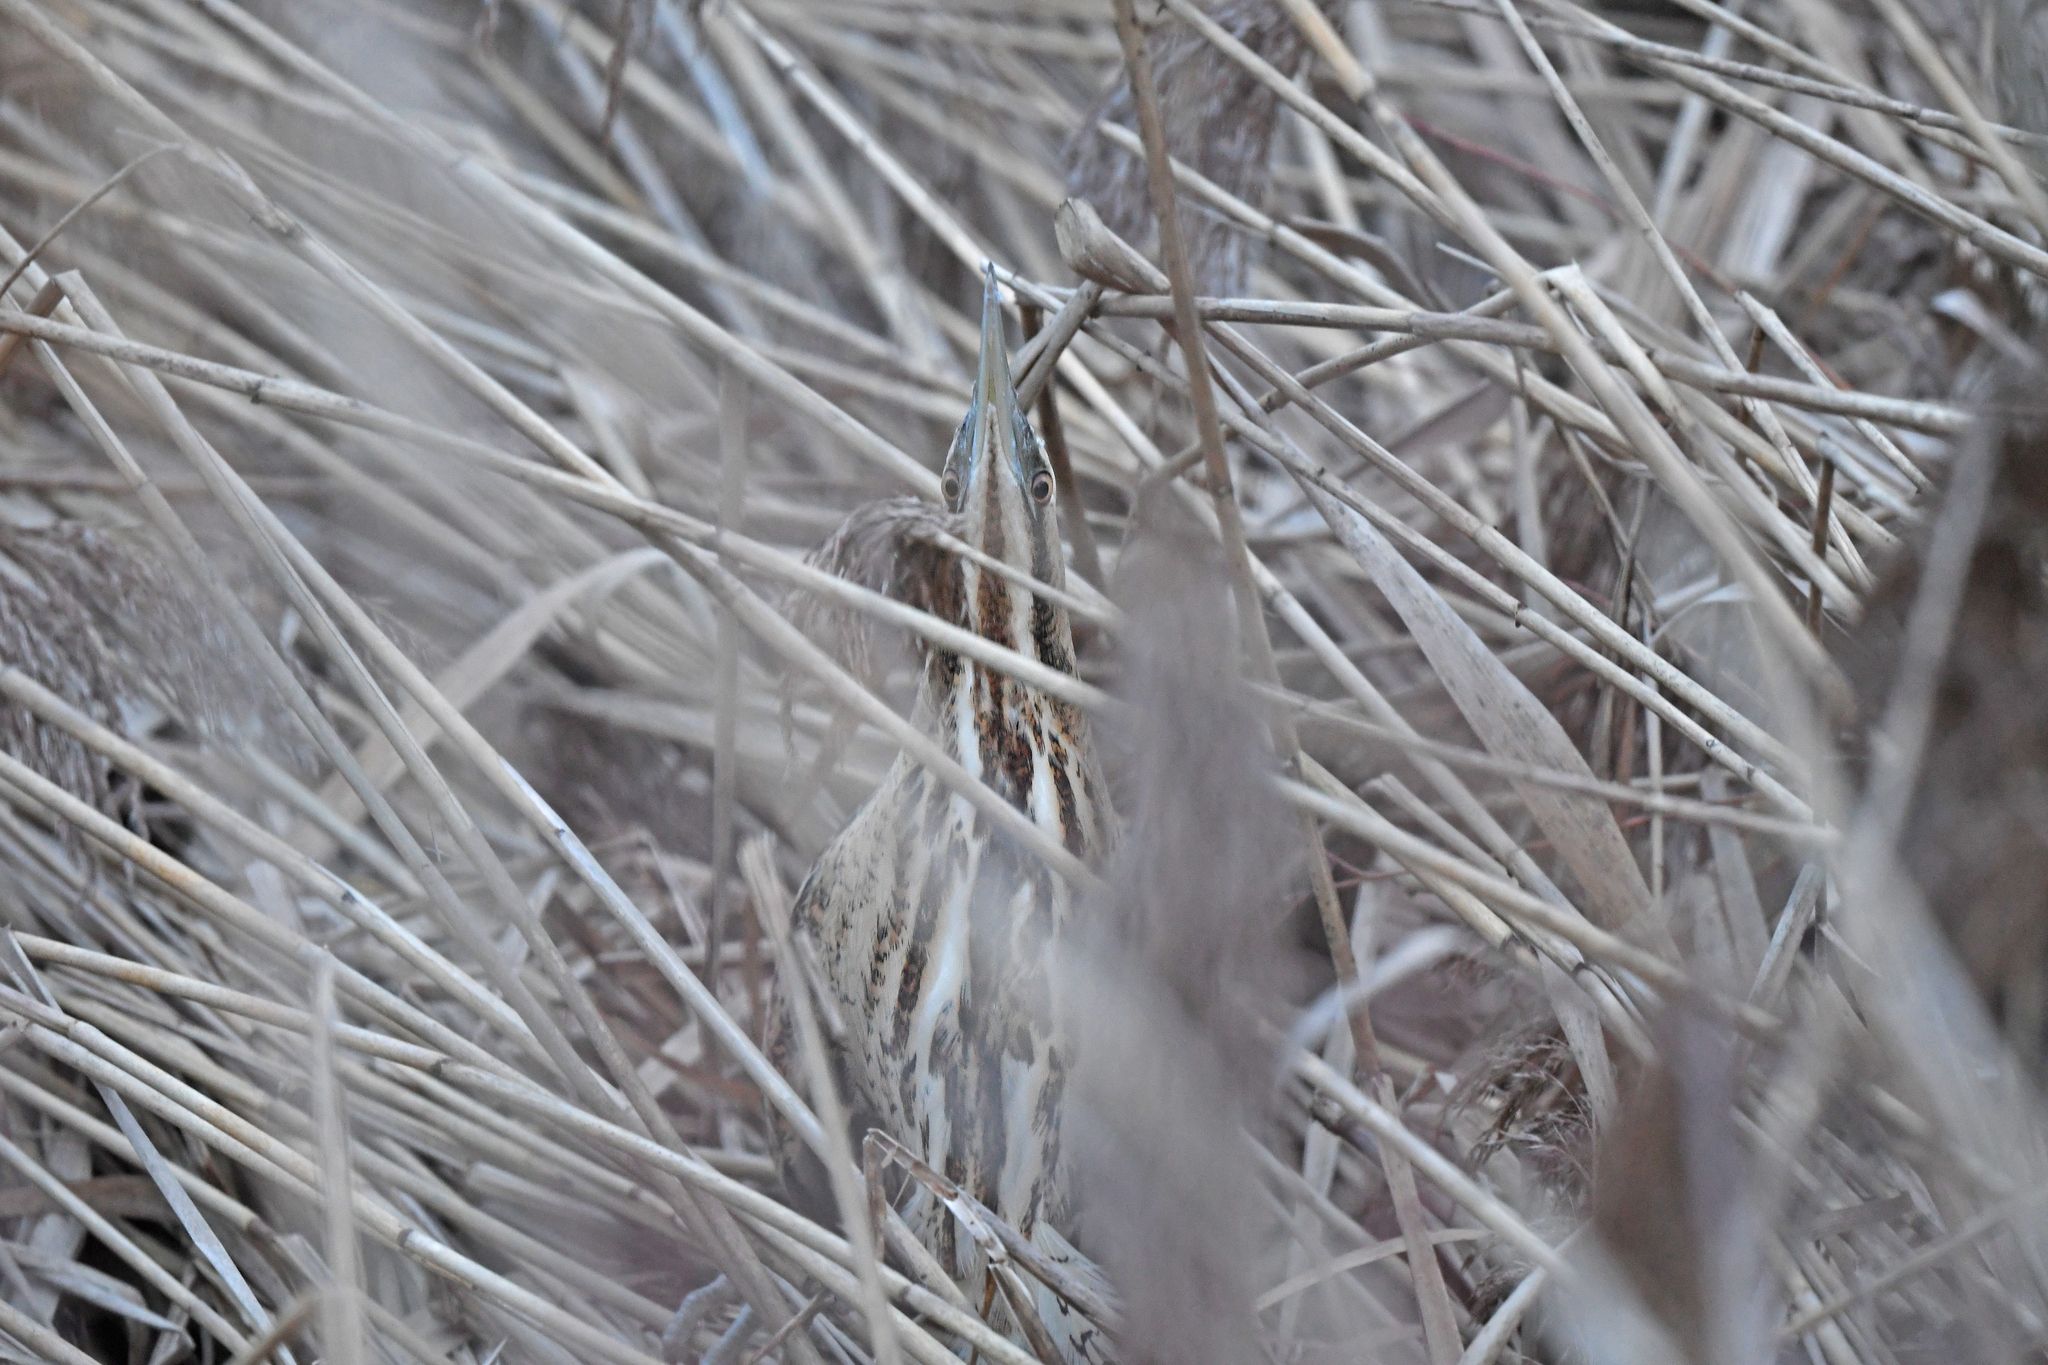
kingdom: Animalia
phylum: Chordata
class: Aves
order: Pelecaniformes
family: Ardeidae
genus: Botaurus
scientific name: Botaurus stellaris
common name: Eurasian bittern
